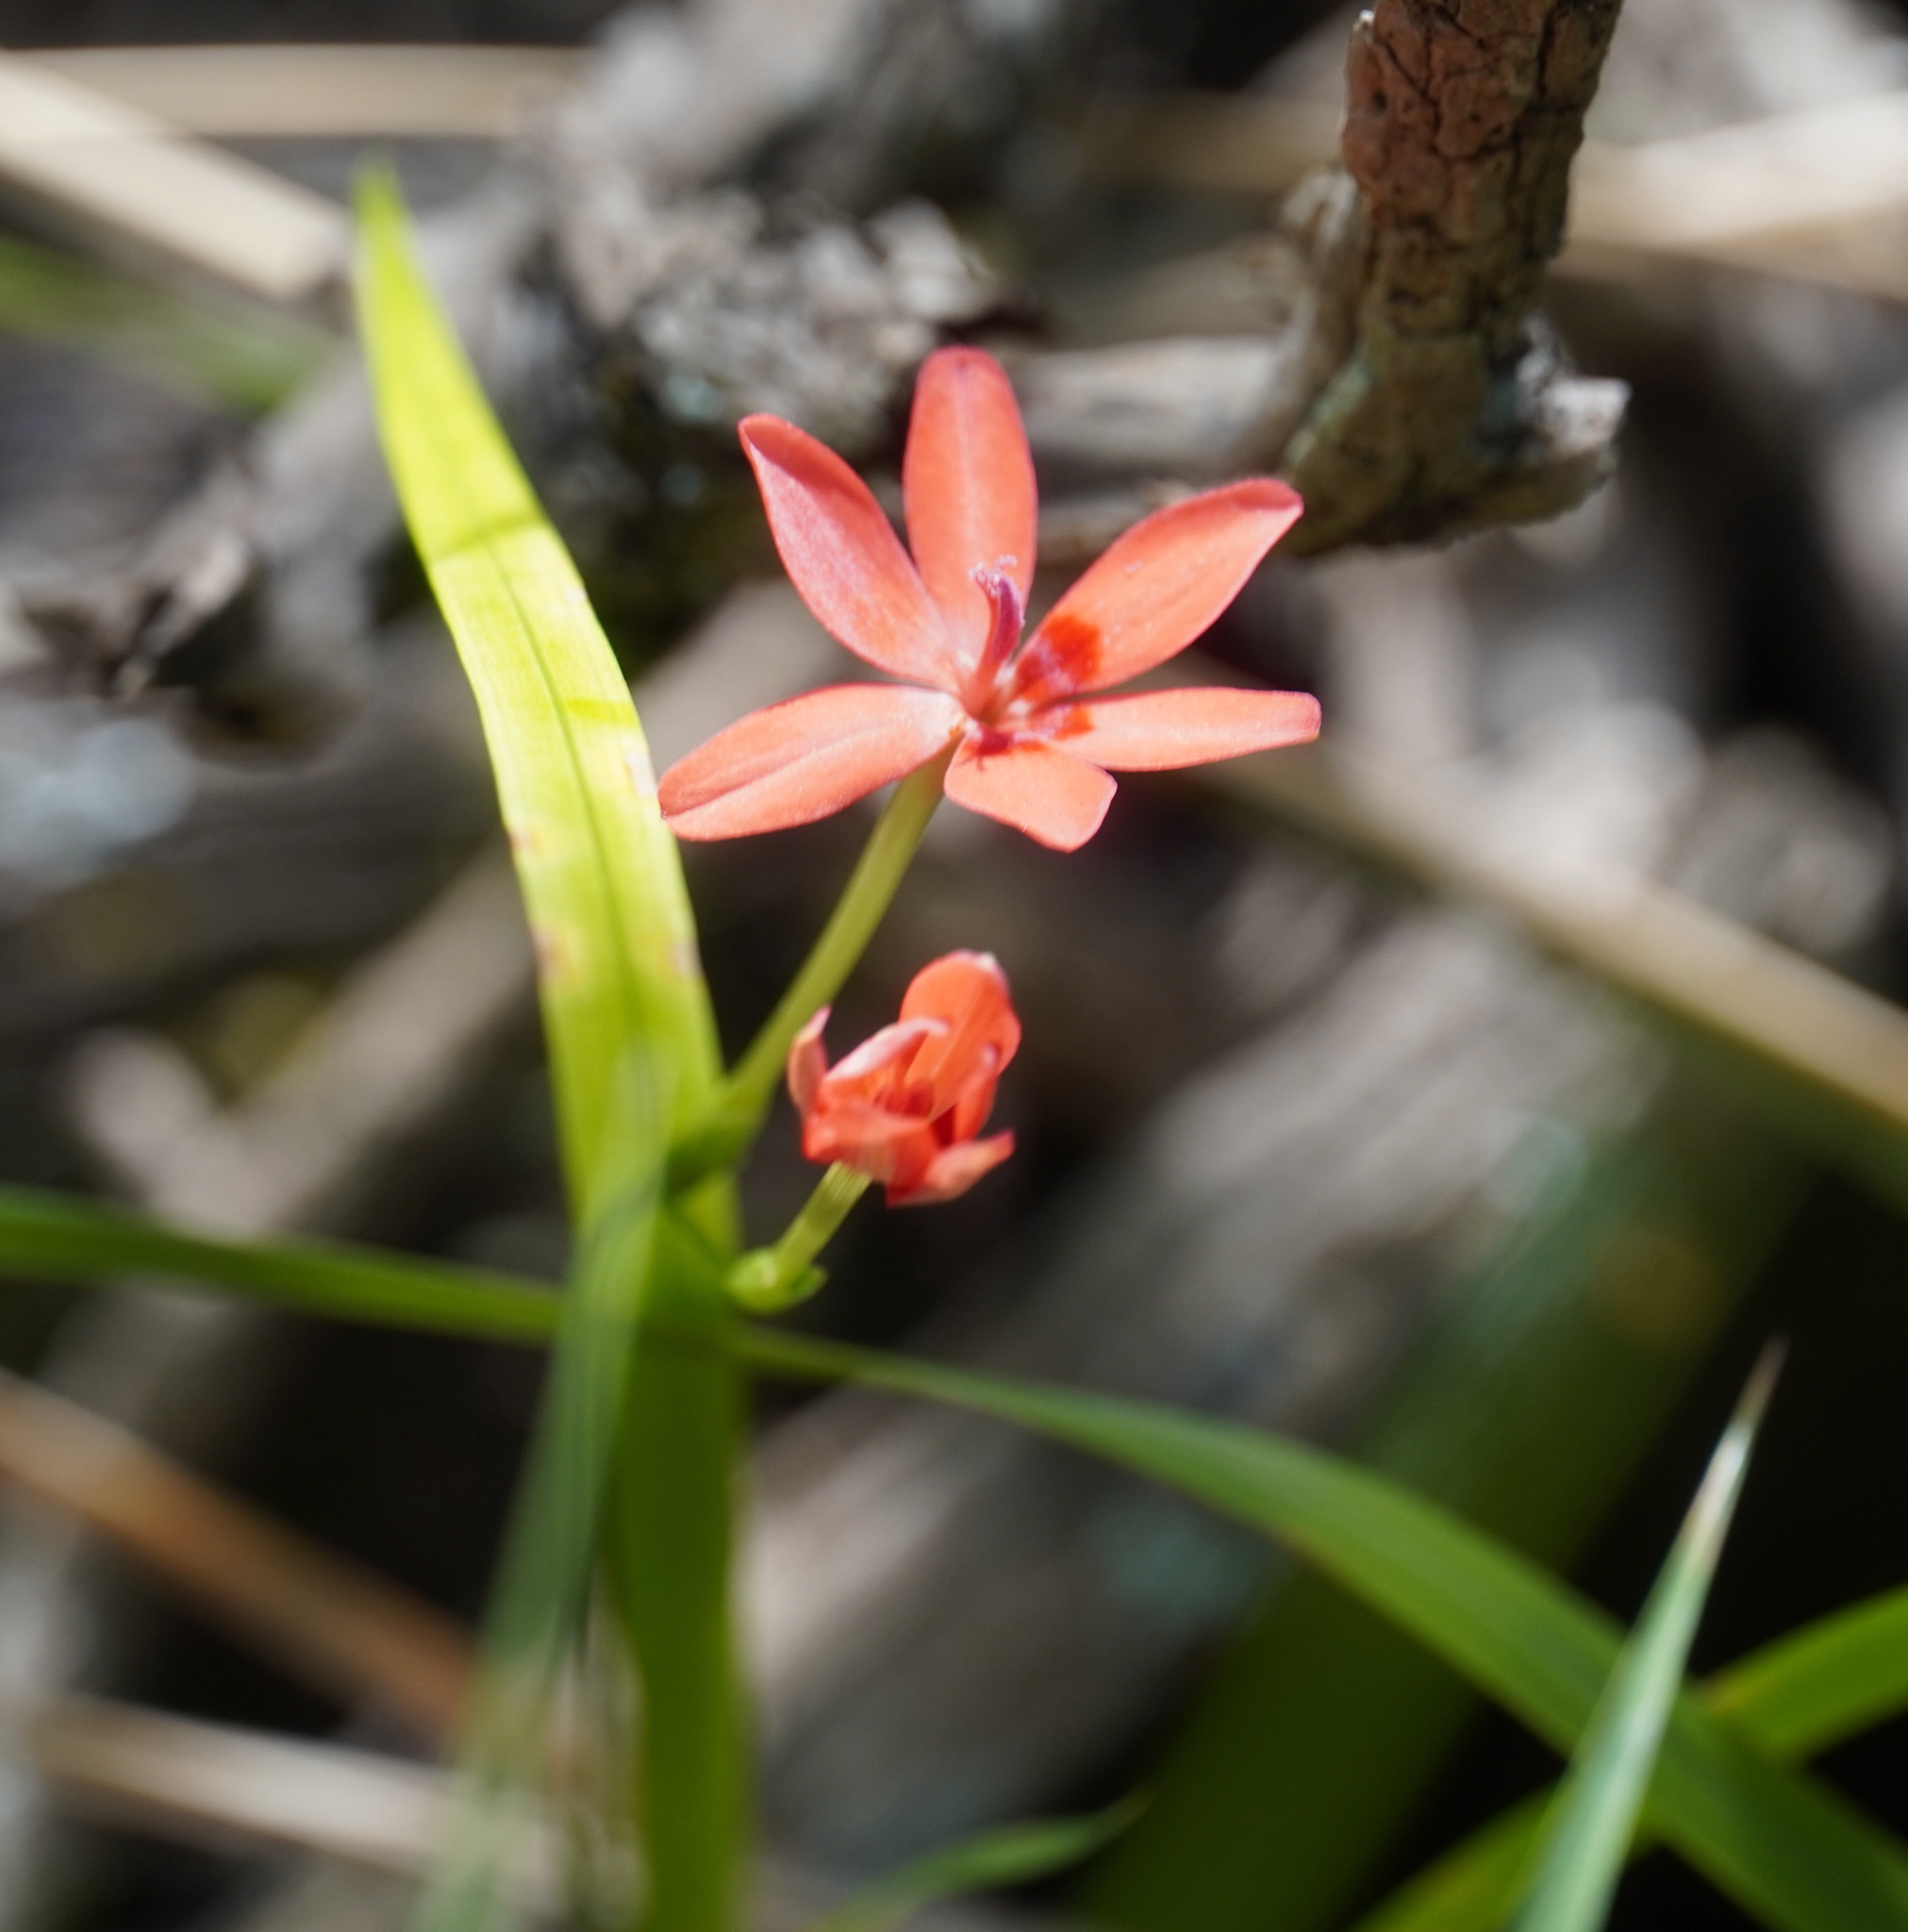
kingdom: Plantae
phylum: Tracheophyta
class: Liliopsida
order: Asparagales
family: Iridaceae
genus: Freesia
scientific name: Freesia laxa
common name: False freesia
